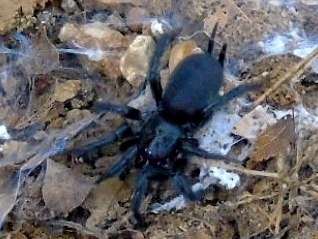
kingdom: Animalia
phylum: Arthropoda
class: Arachnida
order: Araneae
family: Euagridae
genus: Euagrus
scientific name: Euagrus
